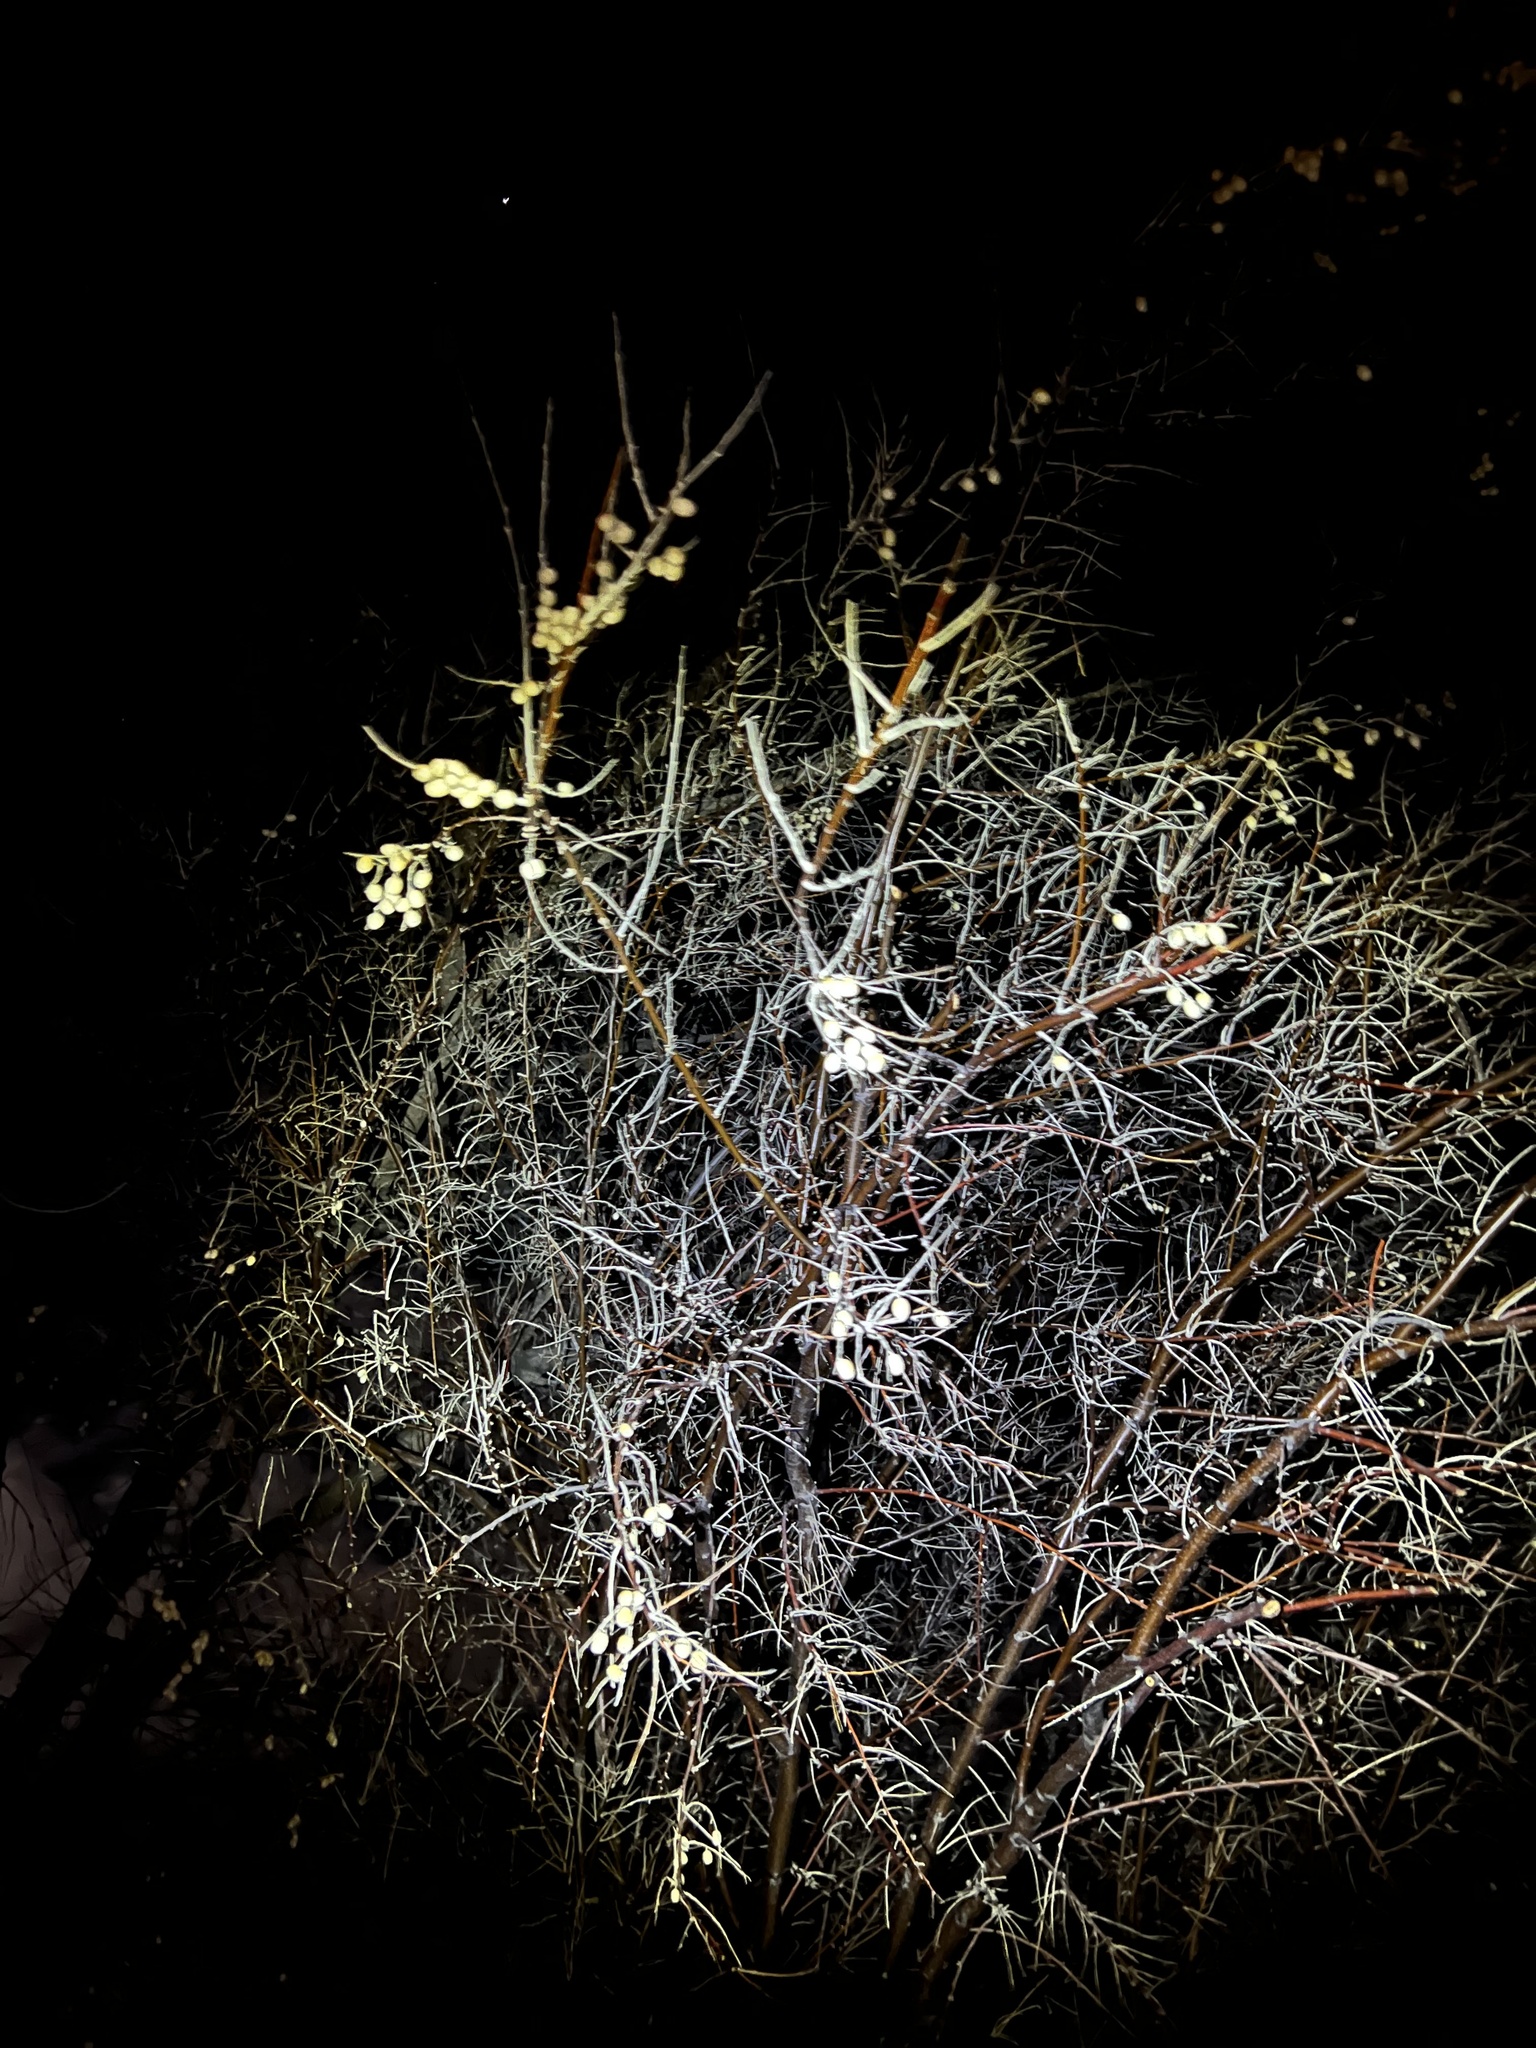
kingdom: Plantae
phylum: Tracheophyta
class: Magnoliopsida
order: Rosales
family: Elaeagnaceae
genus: Elaeagnus
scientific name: Elaeagnus angustifolia
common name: Russian olive
